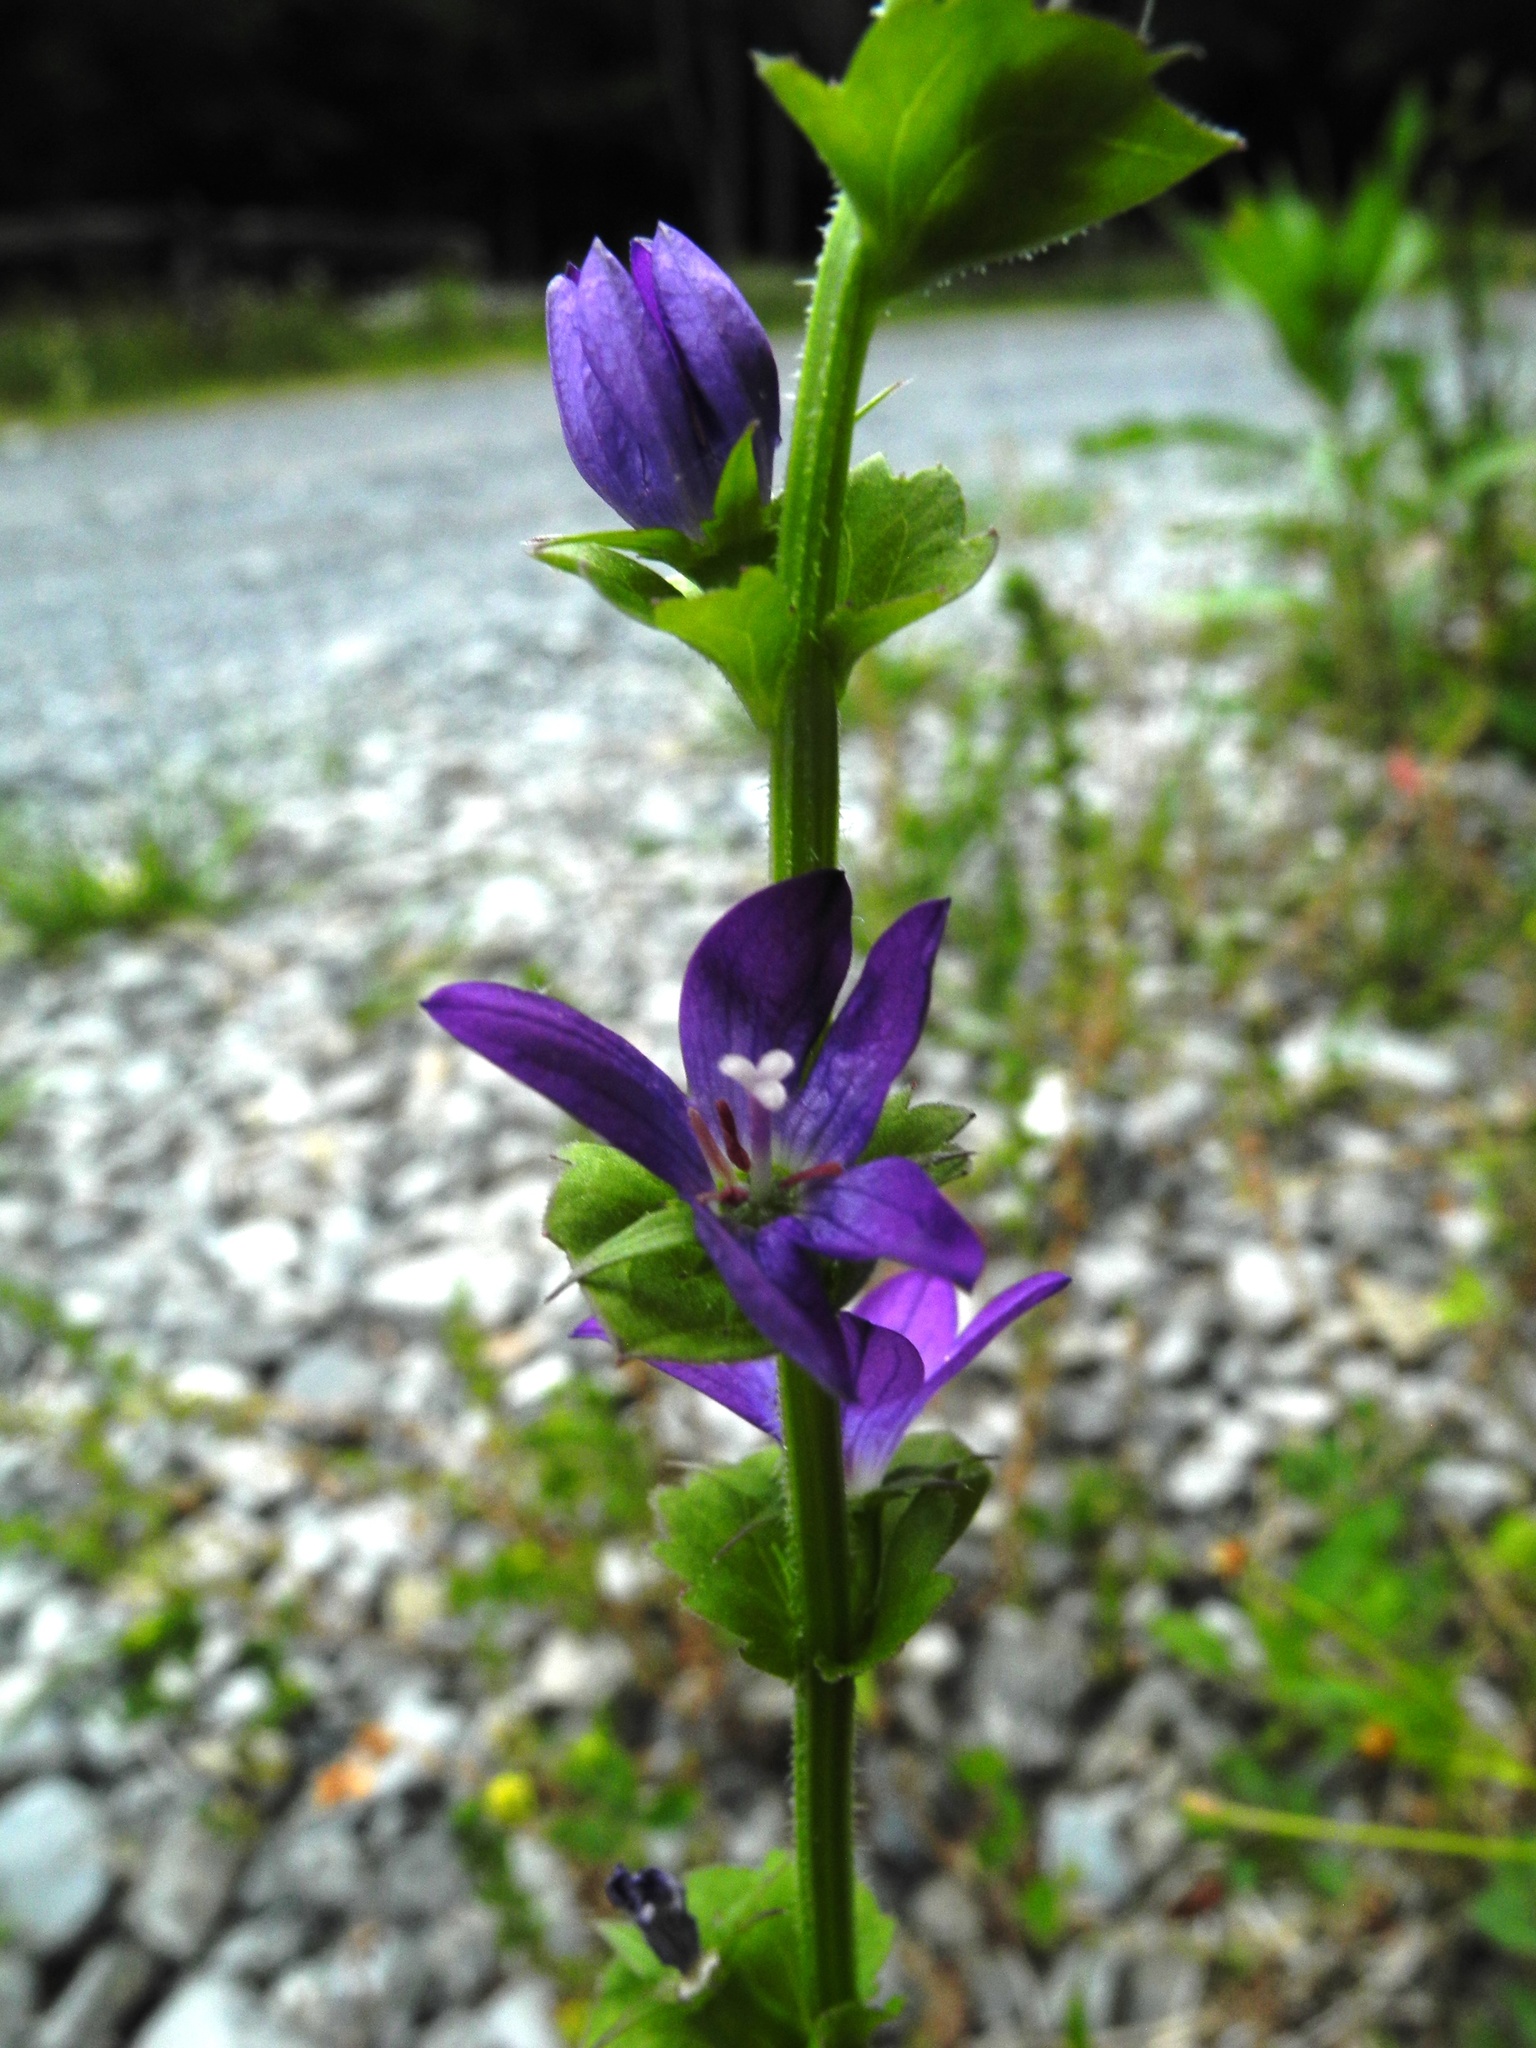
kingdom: Plantae
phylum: Tracheophyta
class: Magnoliopsida
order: Asterales
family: Campanulaceae
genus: Triodanis
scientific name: Triodanis perfoliata
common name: Clasping venus' looking-glass
